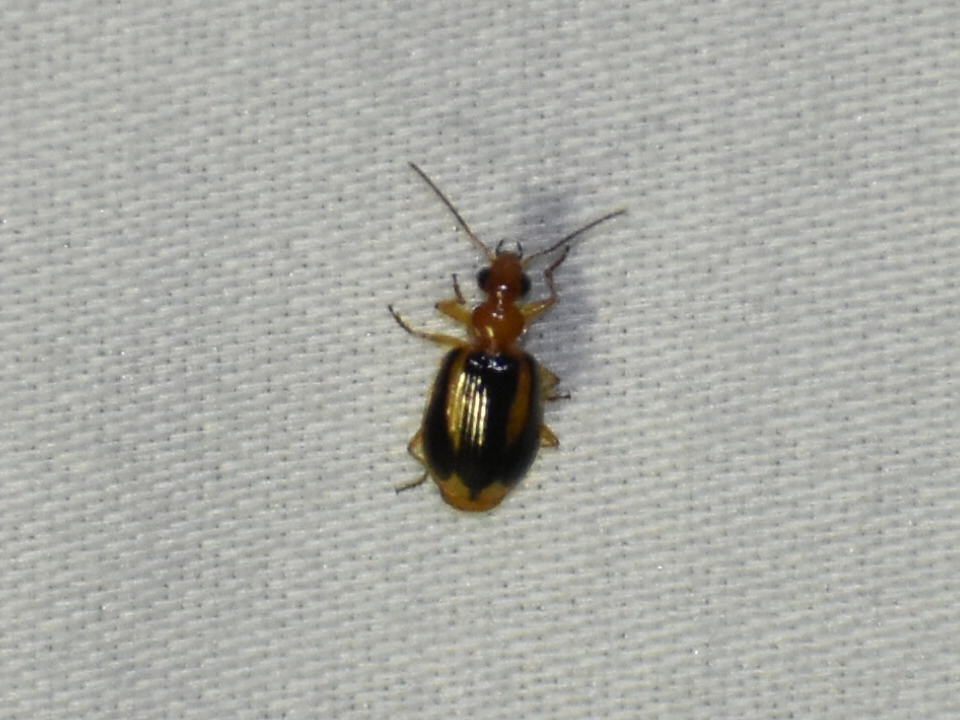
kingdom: Animalia
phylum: Arthropoda
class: Insecta
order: Coleoptera
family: Carabidae
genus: Lebia
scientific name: Lebia solea
